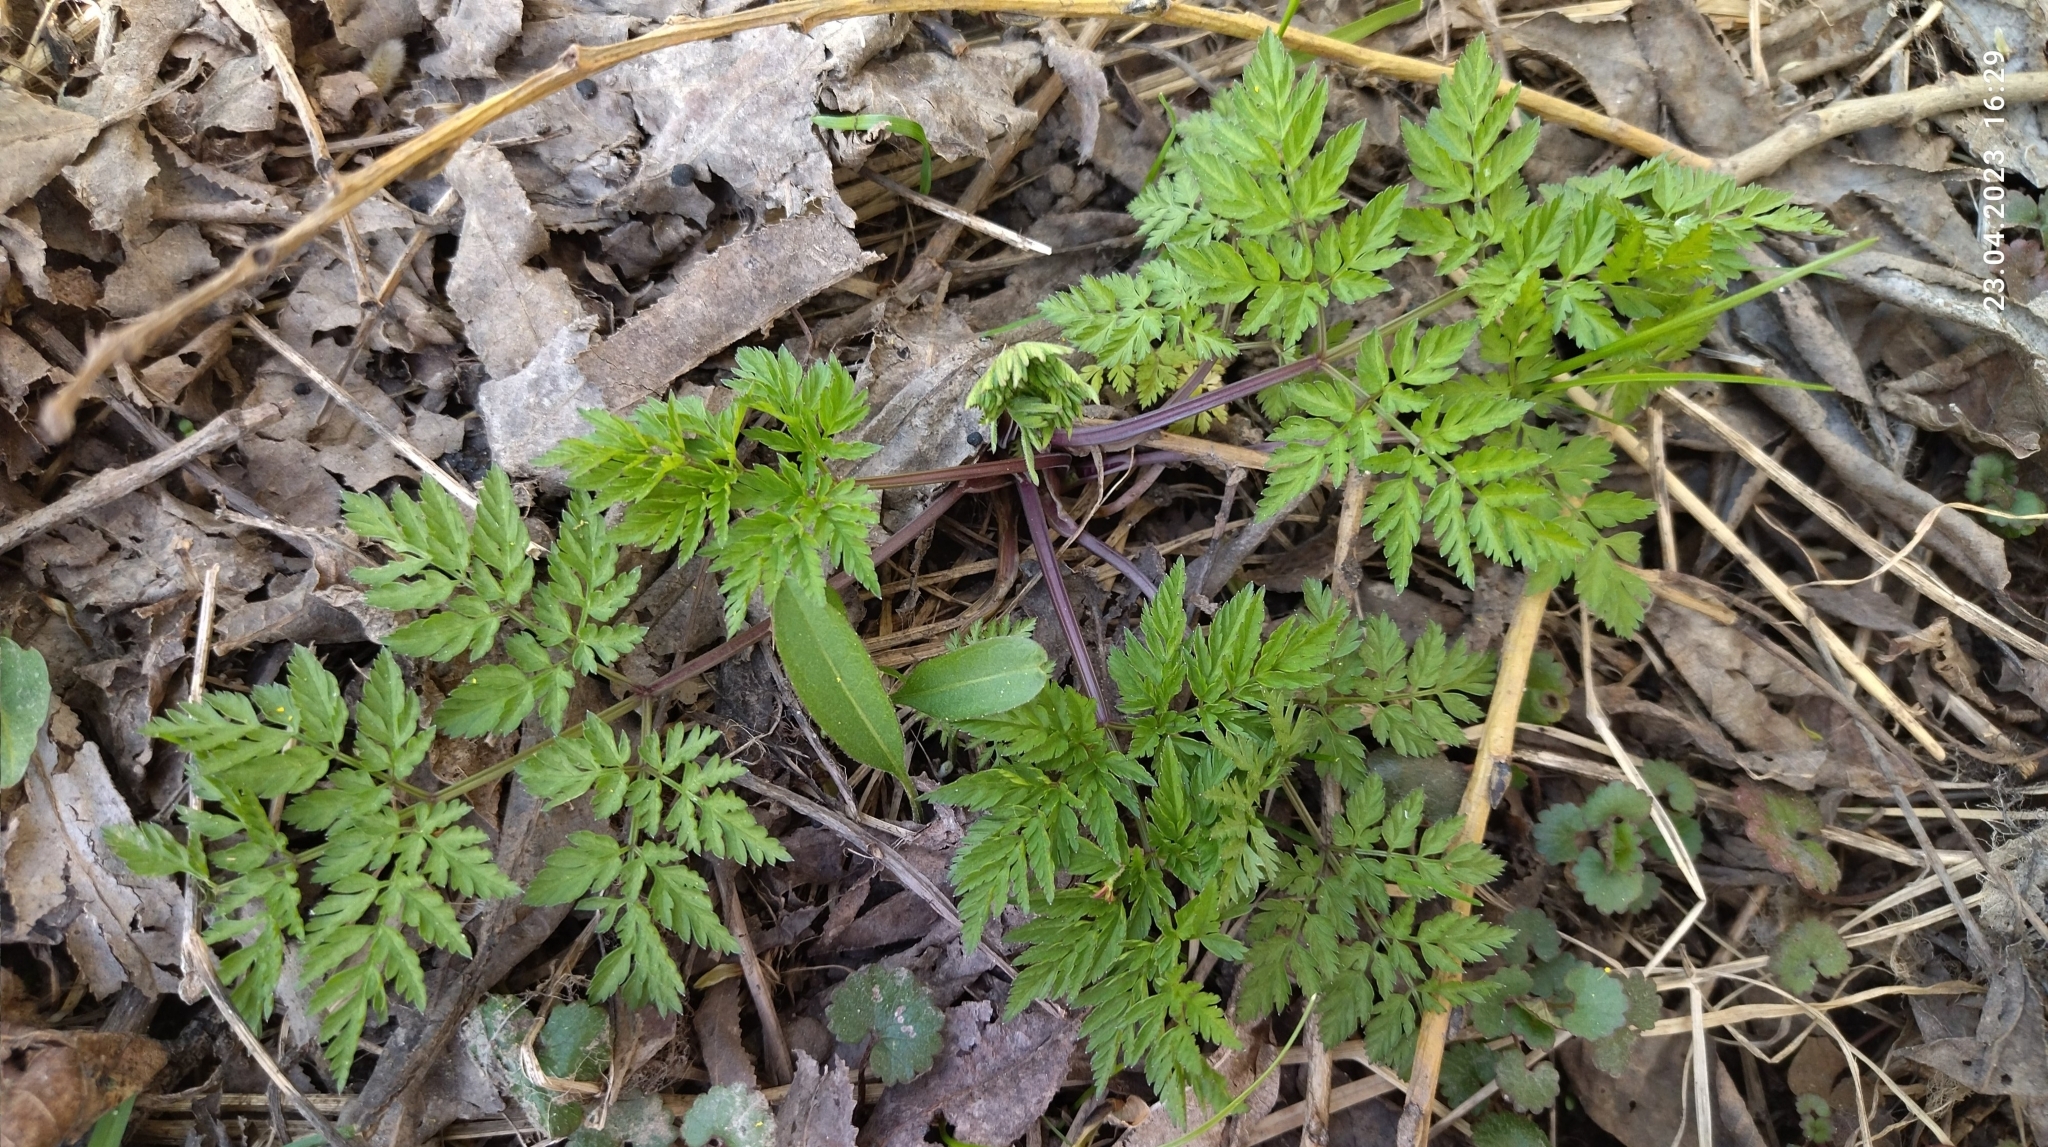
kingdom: Plantae
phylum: Tracheophyta
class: Magnoliopsida
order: Apiales
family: Apiaceae
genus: Anthriscus
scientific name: Anthriscus sylvestris
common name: Cow parsley
